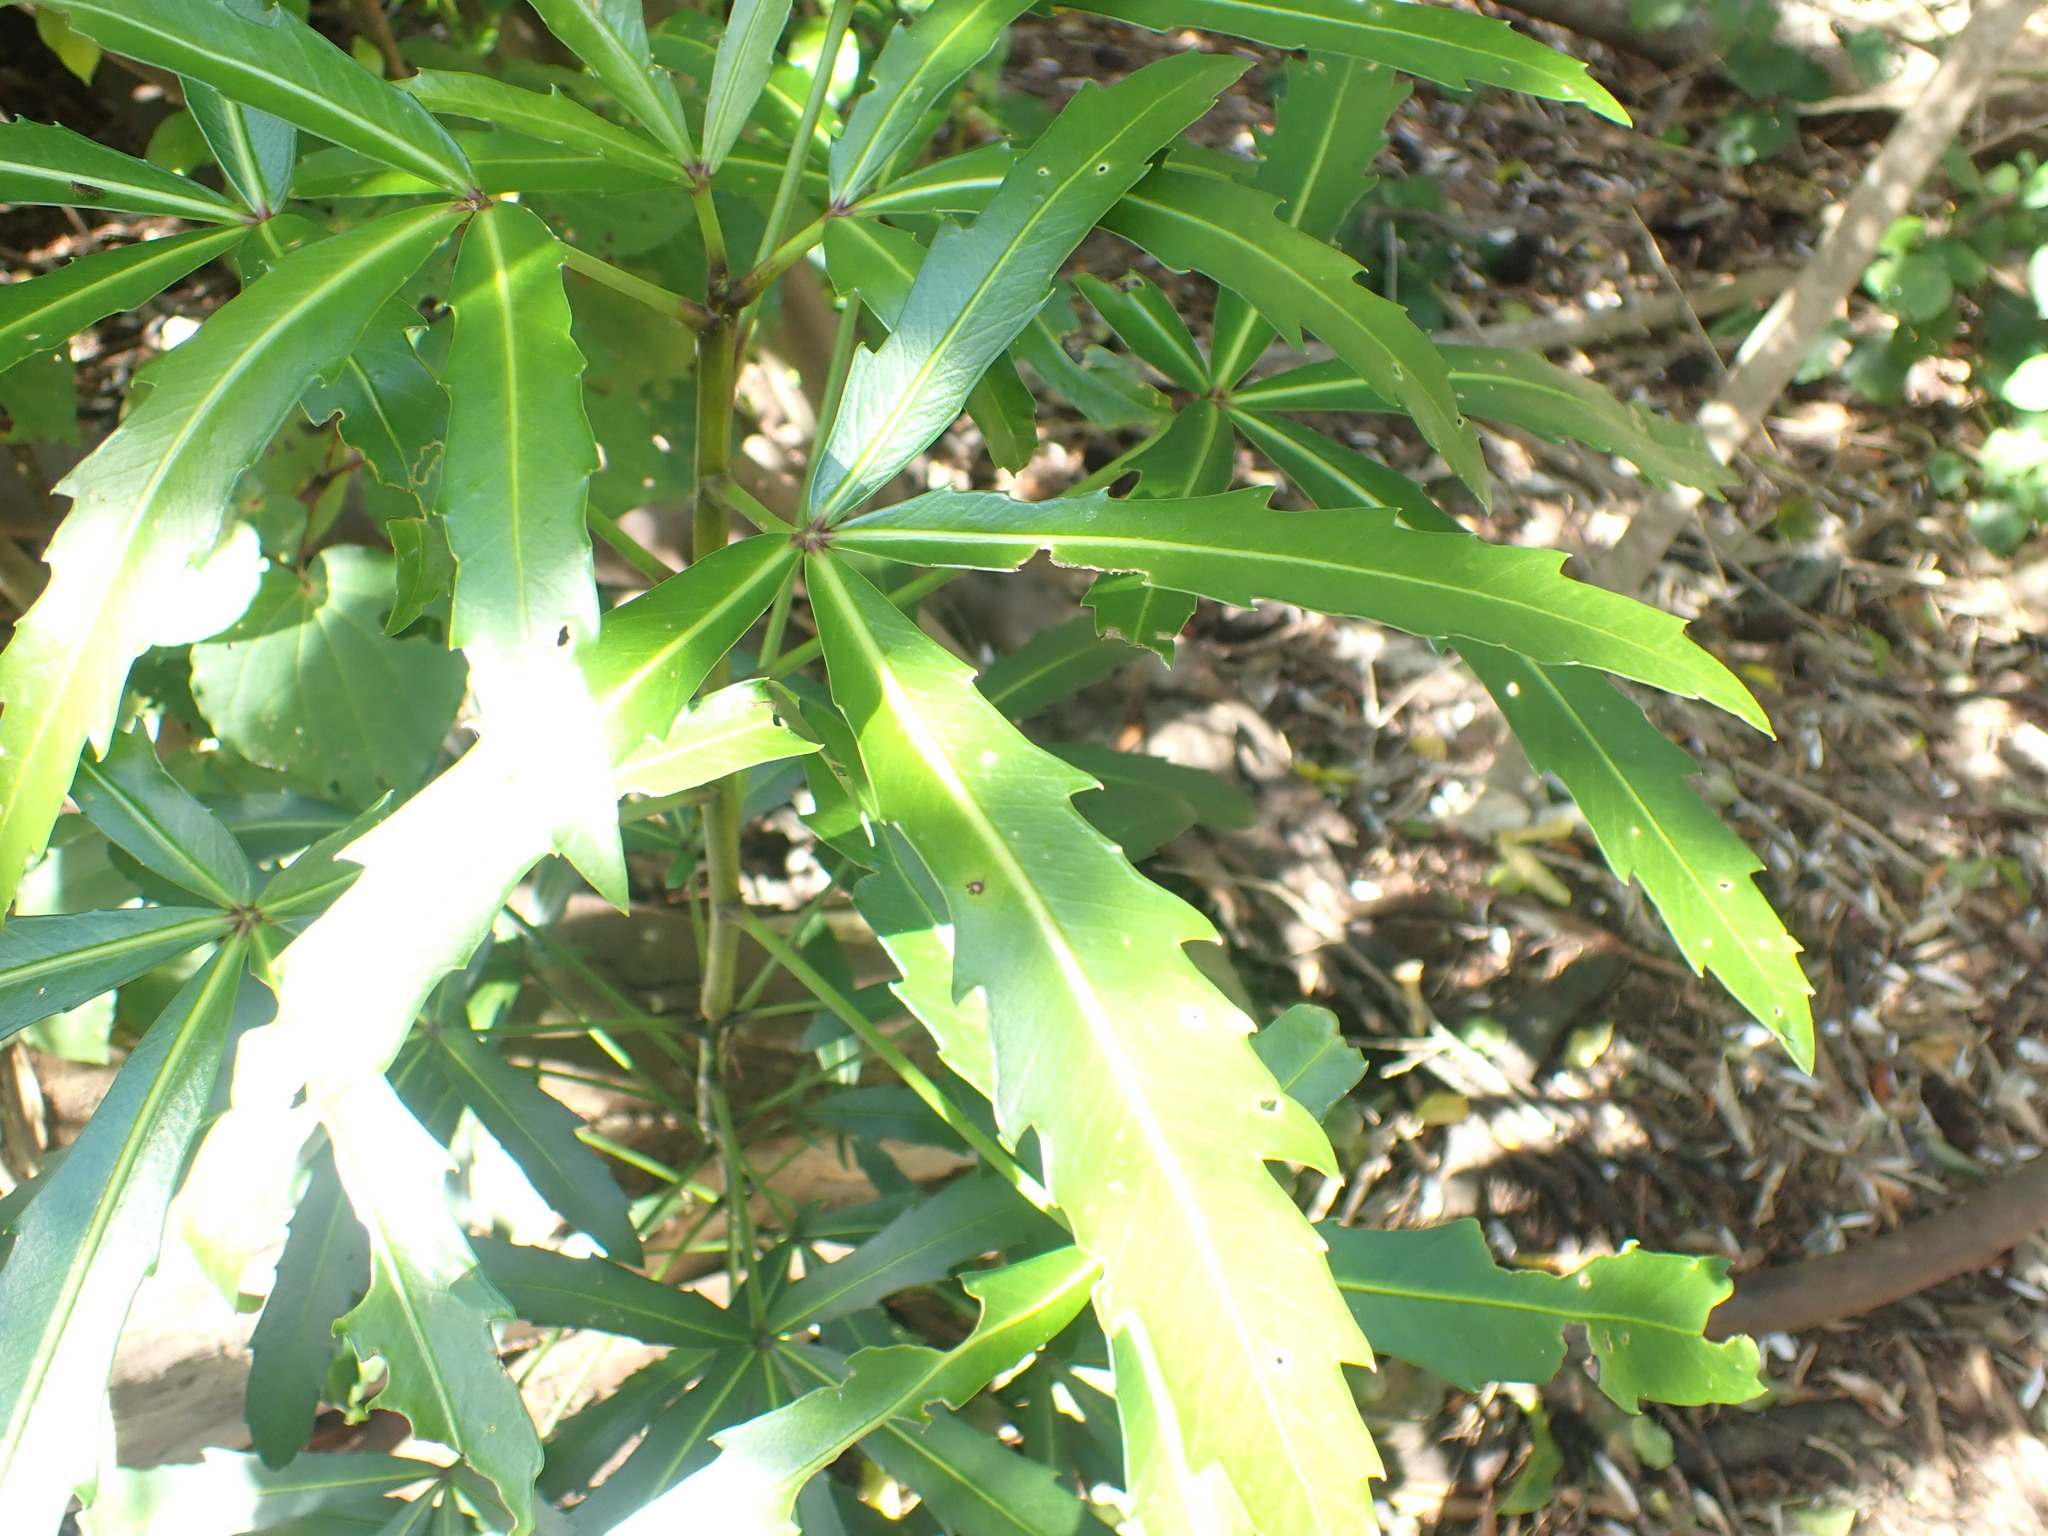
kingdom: Plantae
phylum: Tracheophyta
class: Magnoliopsida
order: Apiales
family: Araliaceae
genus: Pseudopanax
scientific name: Pseudopanax
